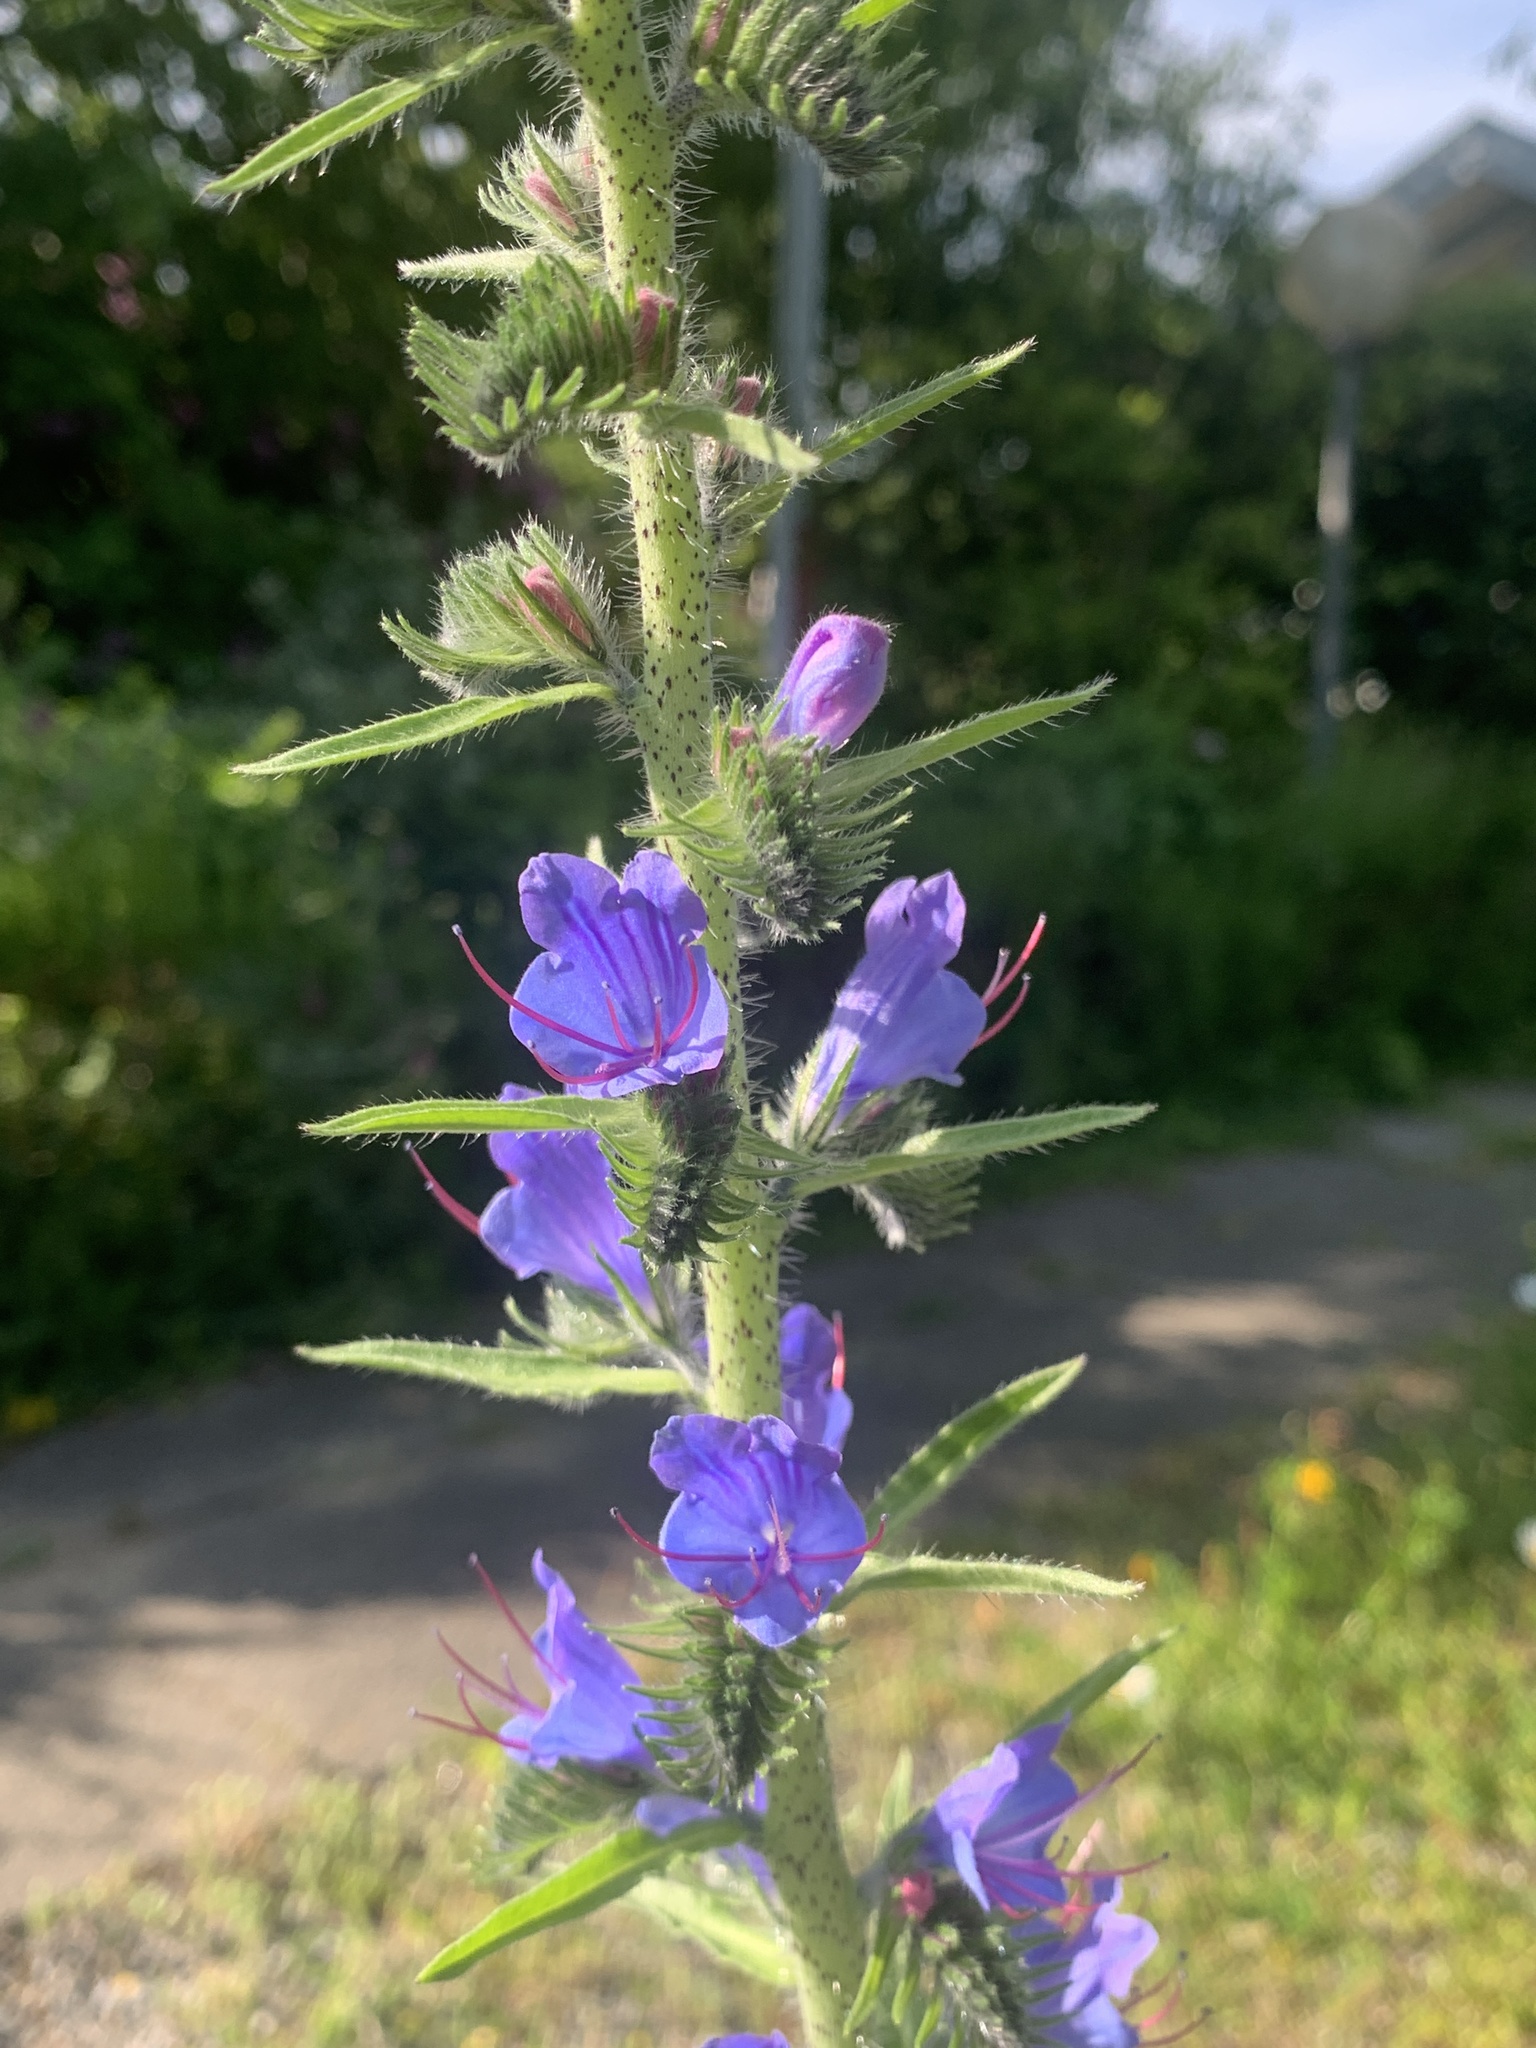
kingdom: Plantae
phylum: Tracheophyta
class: Magnoliopsida
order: Boraginales
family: Boraginaceae
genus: Echium
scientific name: Echium vulgare
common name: Common viper's bugloss
